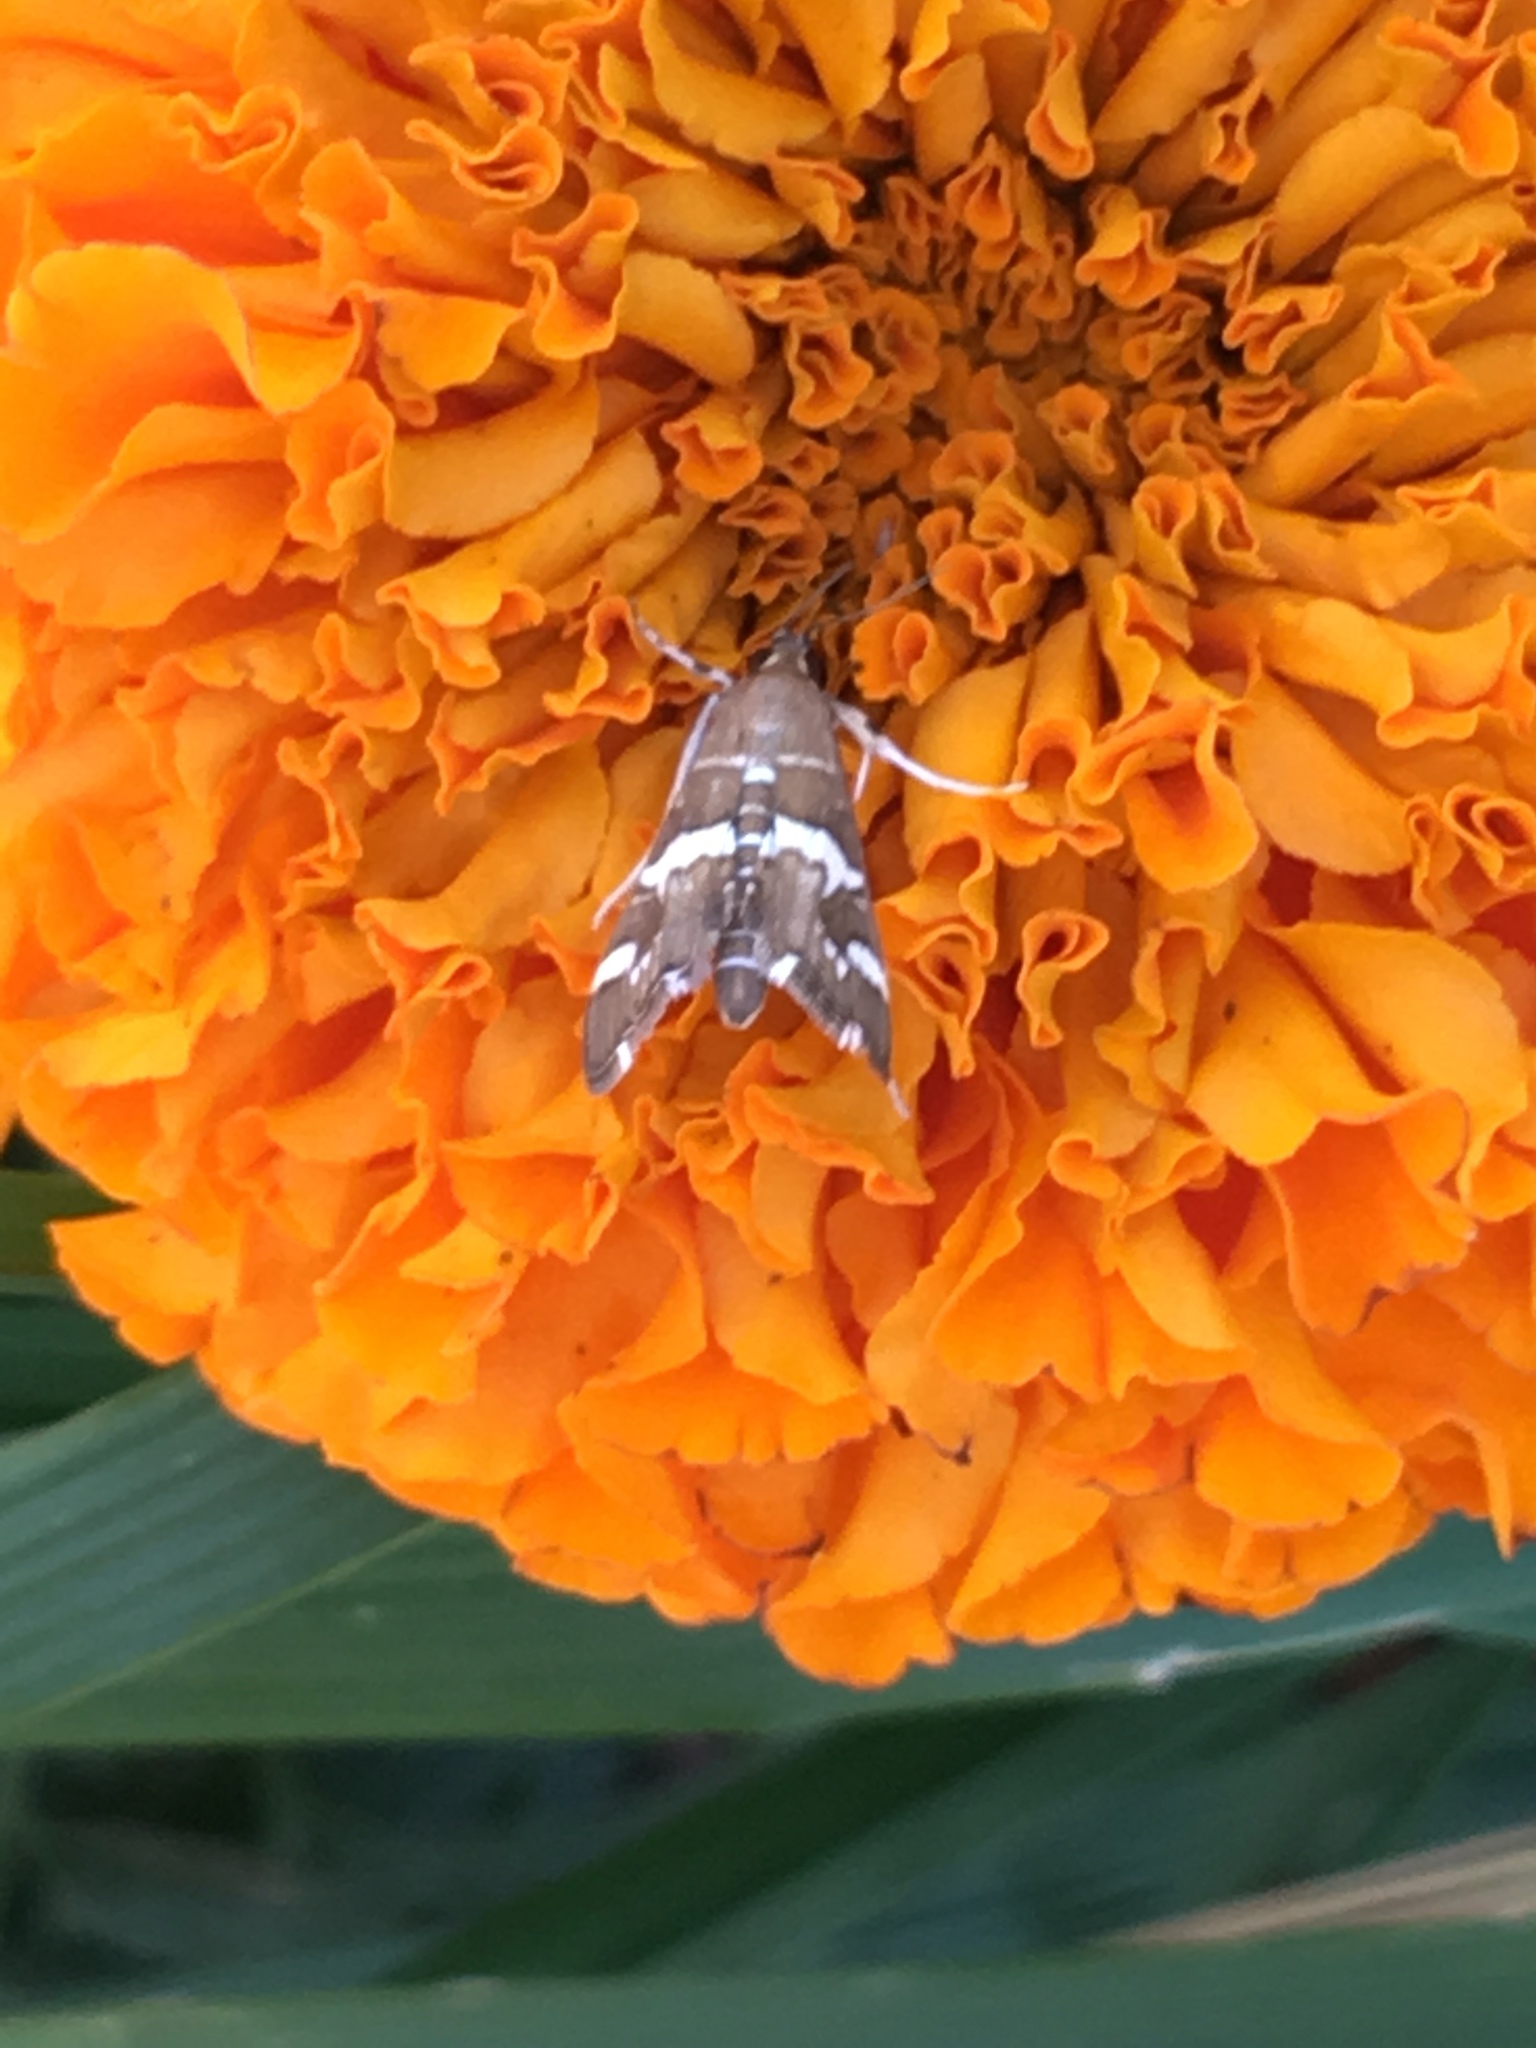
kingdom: Animalia
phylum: Arthropoda
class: Insecta
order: Lepidoptera
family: Crambidae
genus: Spoladea
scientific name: Spoladea recurvalis
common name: Beet webworm moth
